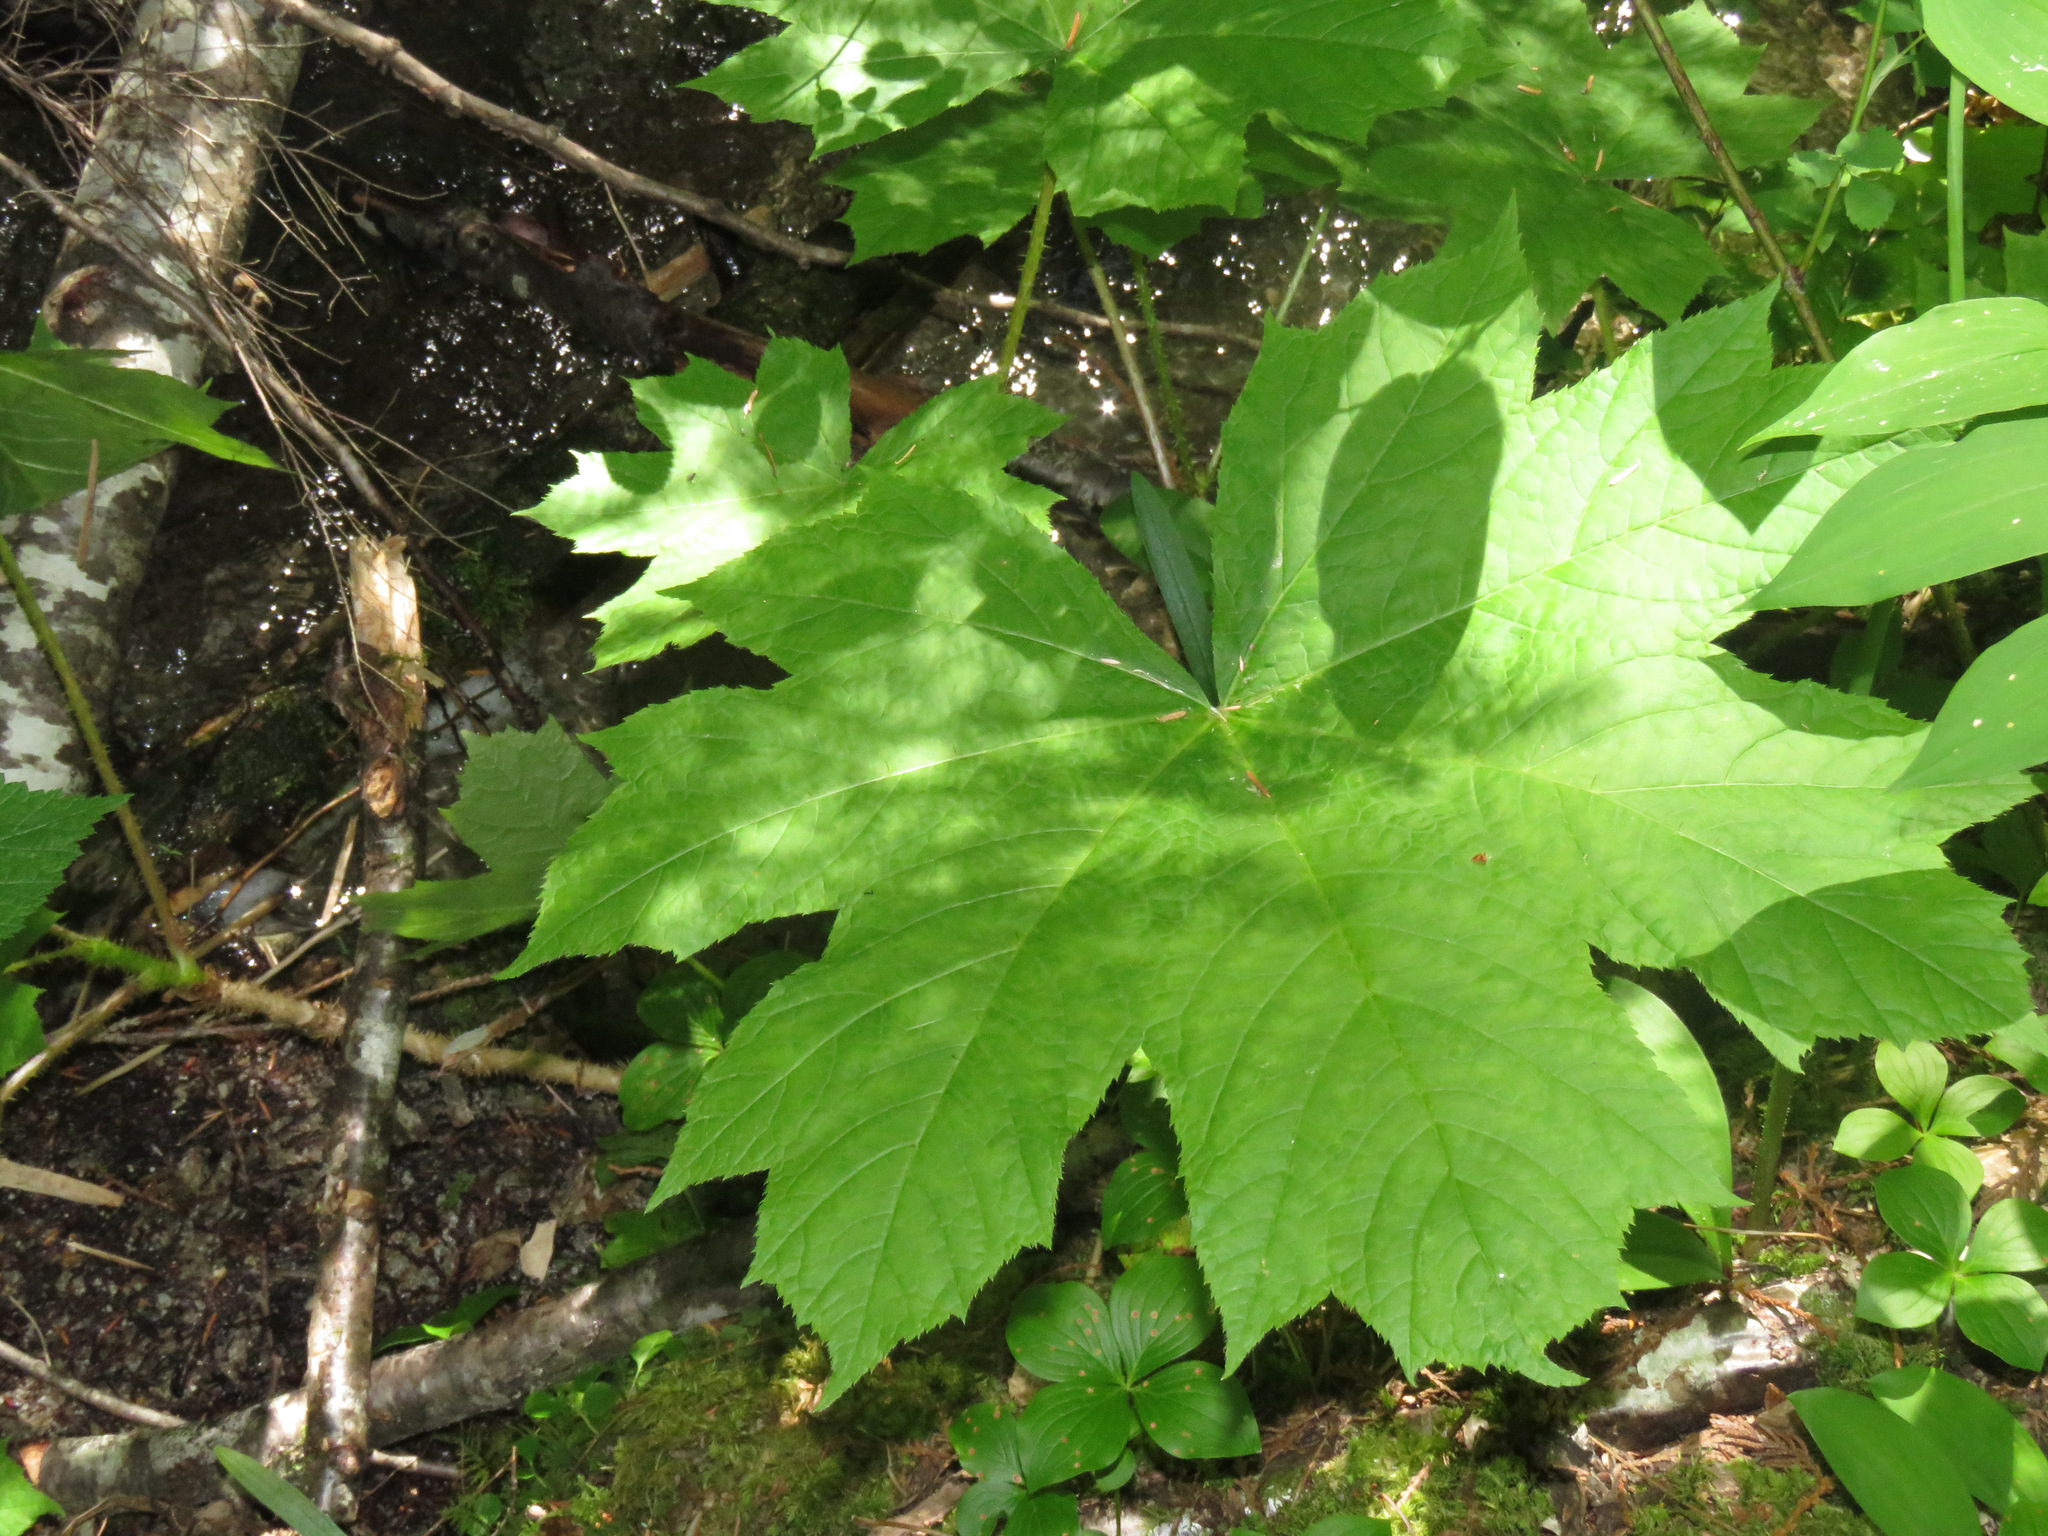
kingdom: Plantae
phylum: Tracheophyta
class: Magnoliopsida
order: Apiales
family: Araliaceae
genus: Oplopanax
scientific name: Oplopanax horridus
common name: Devil's walking-stick
